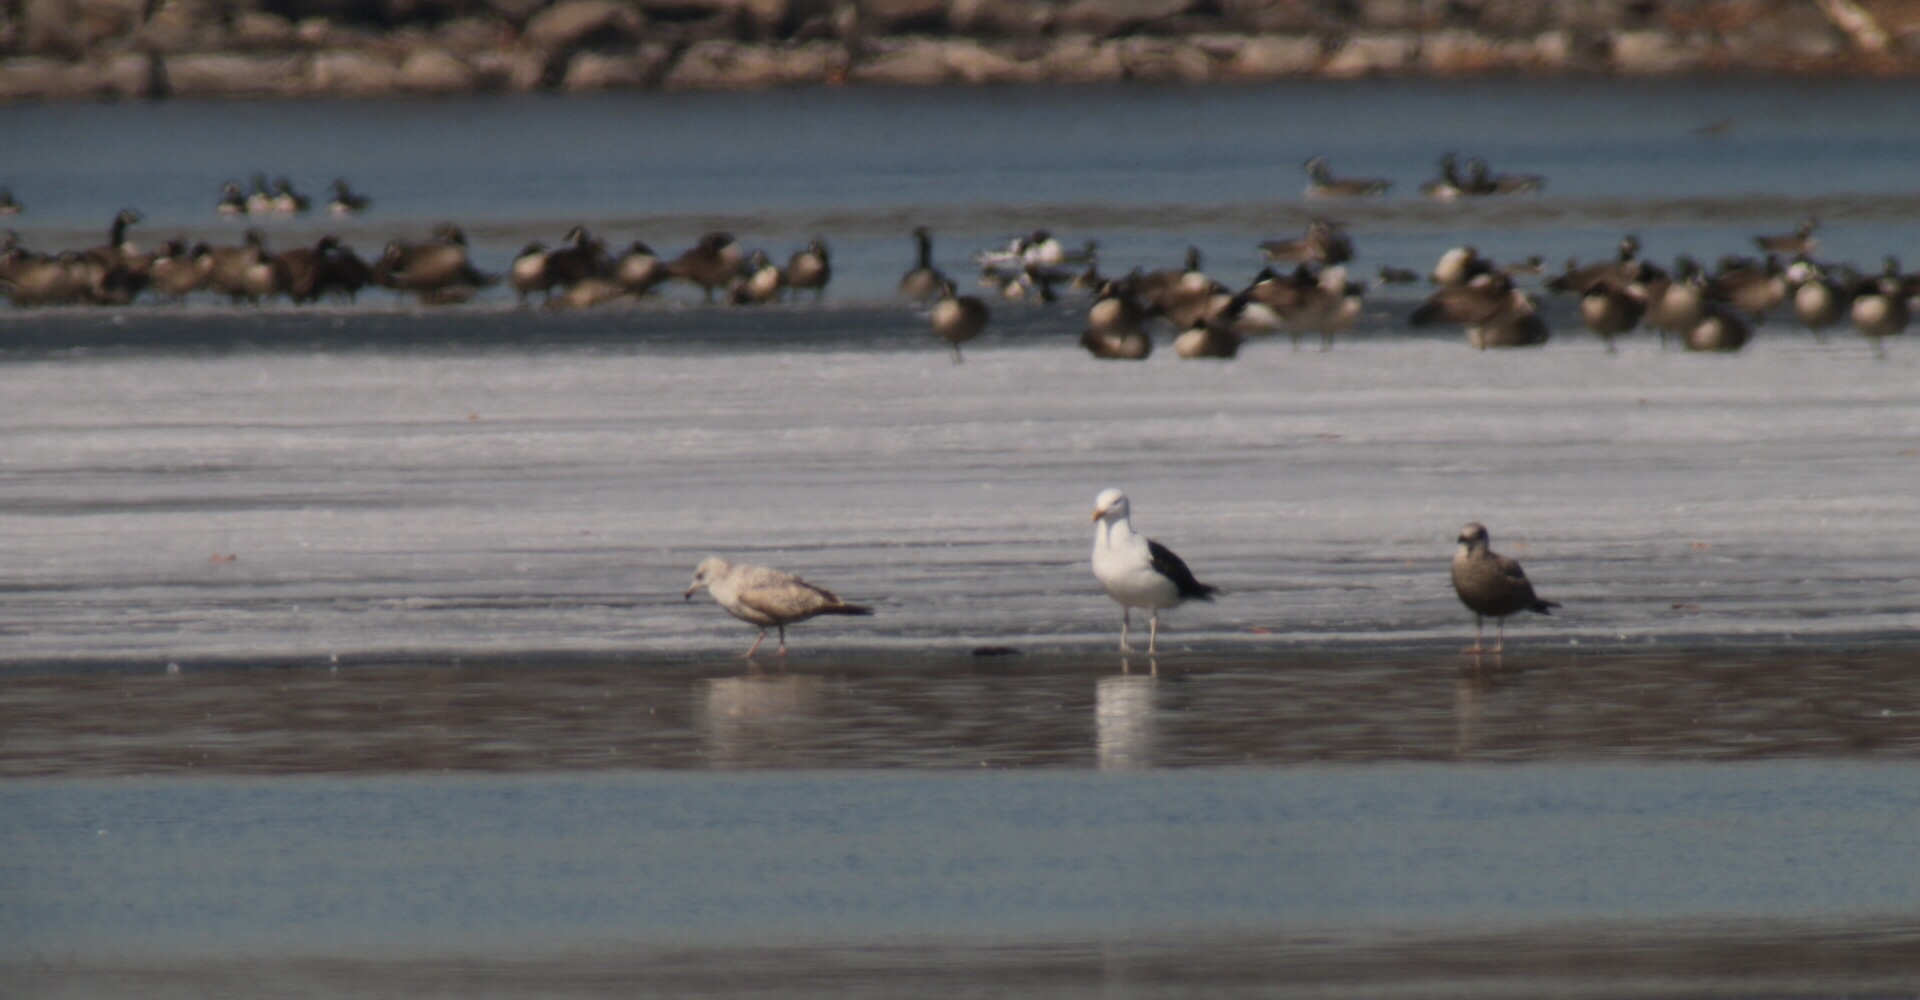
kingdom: Animalia
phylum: Chordata
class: Aves
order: Charadriiformes
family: Laridae
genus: Larus
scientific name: Larus marinus
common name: Great black-backed gull
